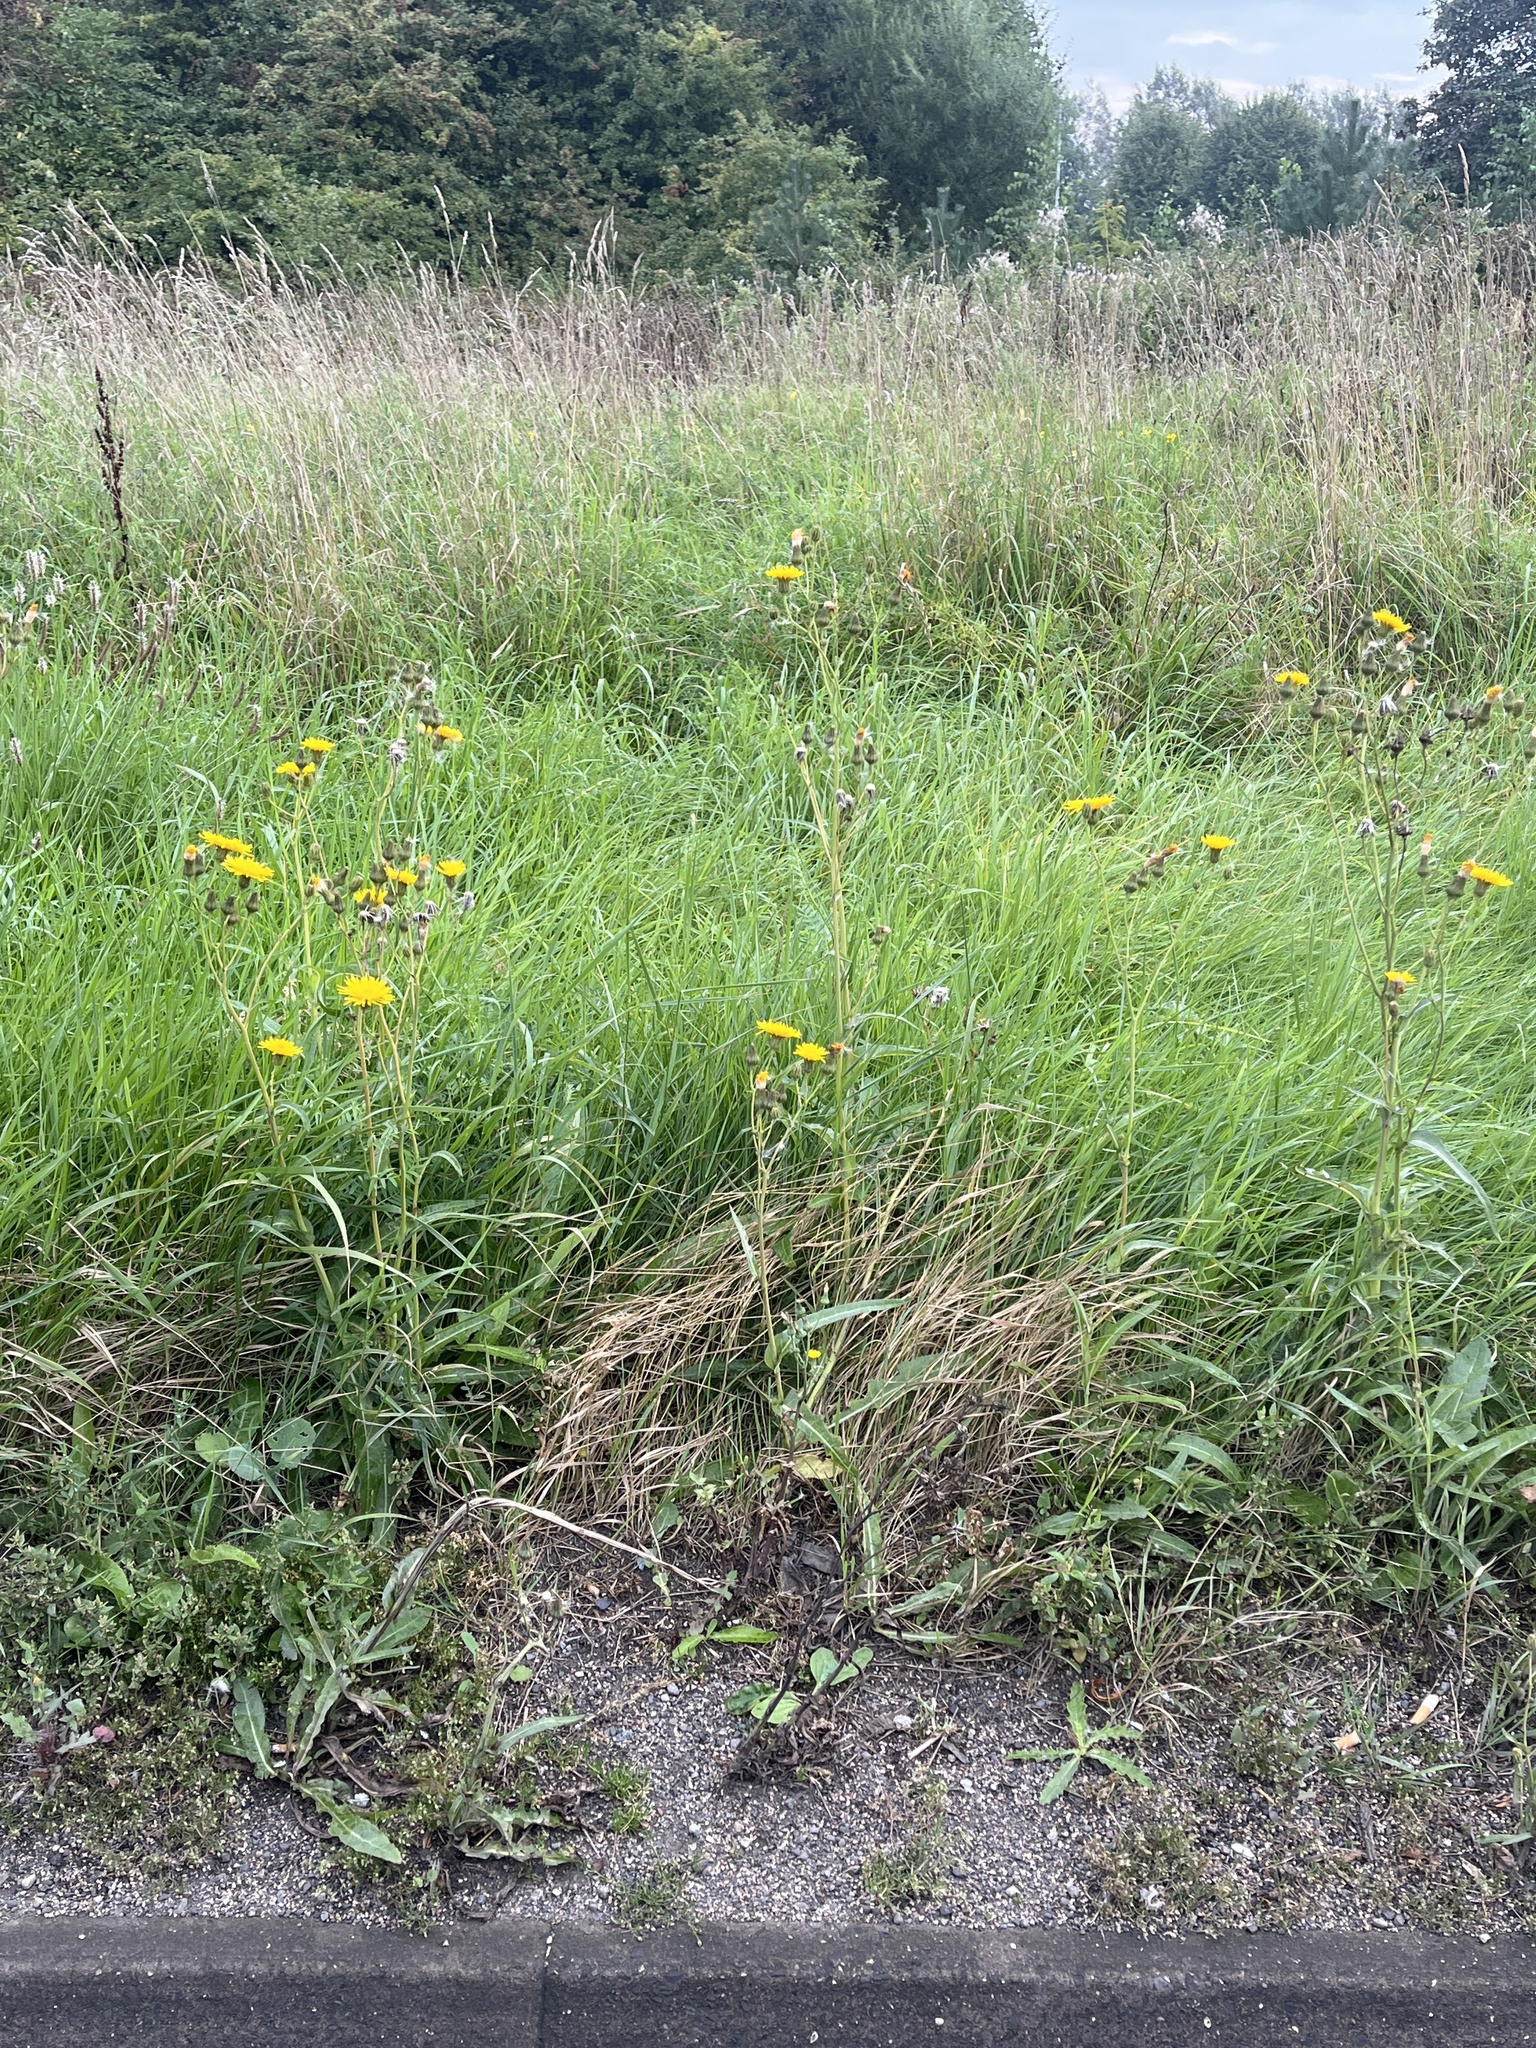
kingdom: Plantae
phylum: Tracheophyta
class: Magnoliopsida
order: Asterales
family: Asteraceae
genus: Sonchus
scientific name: Sonchus arvensis
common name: Perennial sow-thistle
